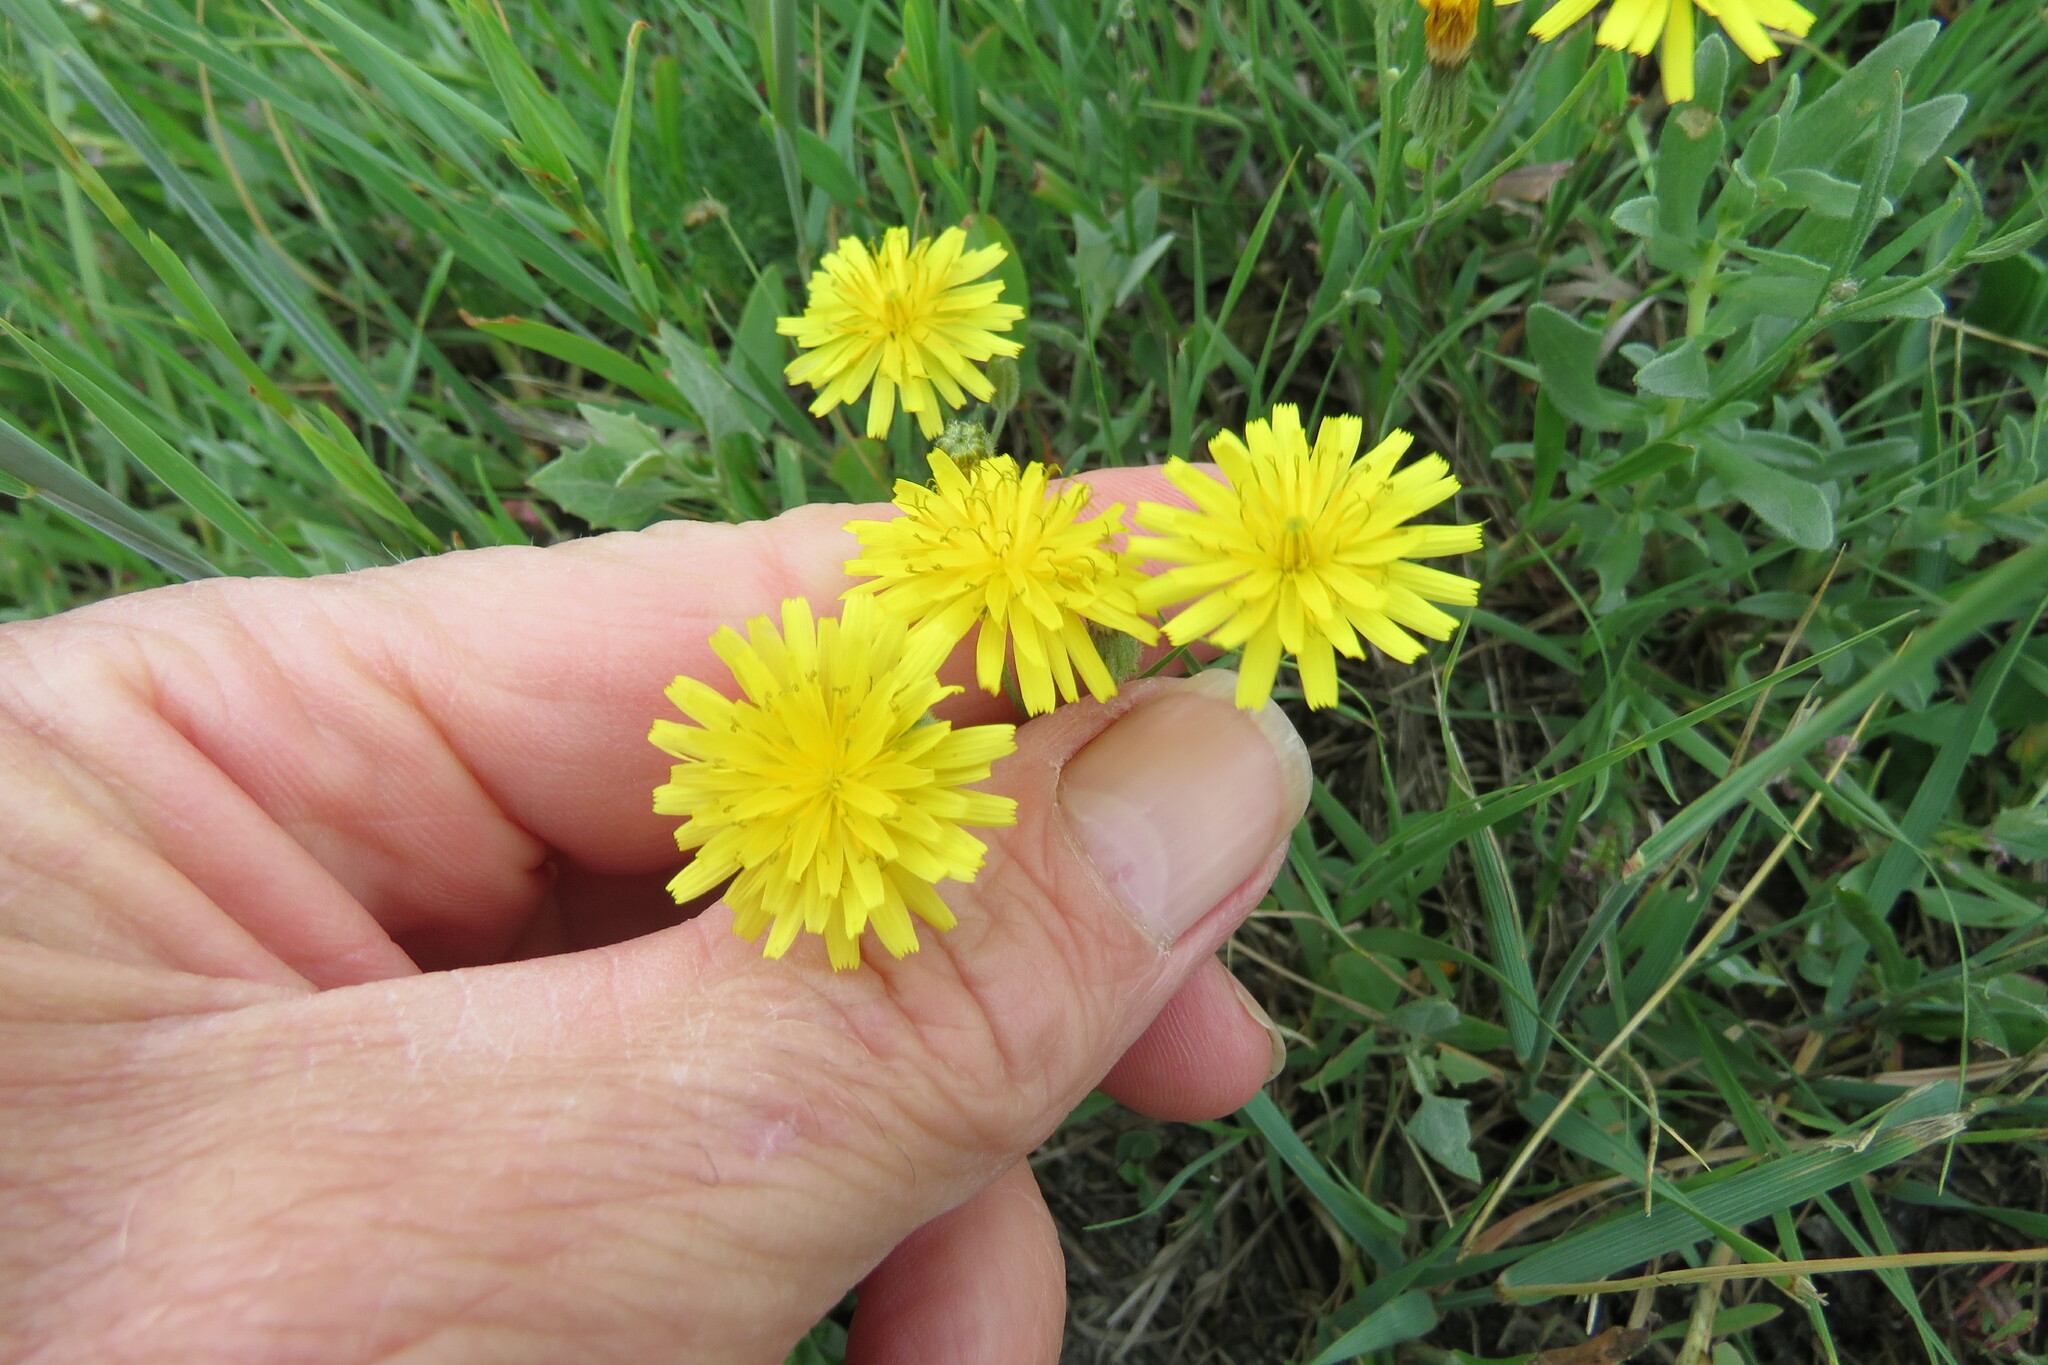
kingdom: Plantae
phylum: Tracheophyta
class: Magnoliopsida
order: Asterales
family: Asteraceae
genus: Crepis
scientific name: Crepis tectorum
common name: Narrow-leaved hawk's-beard
